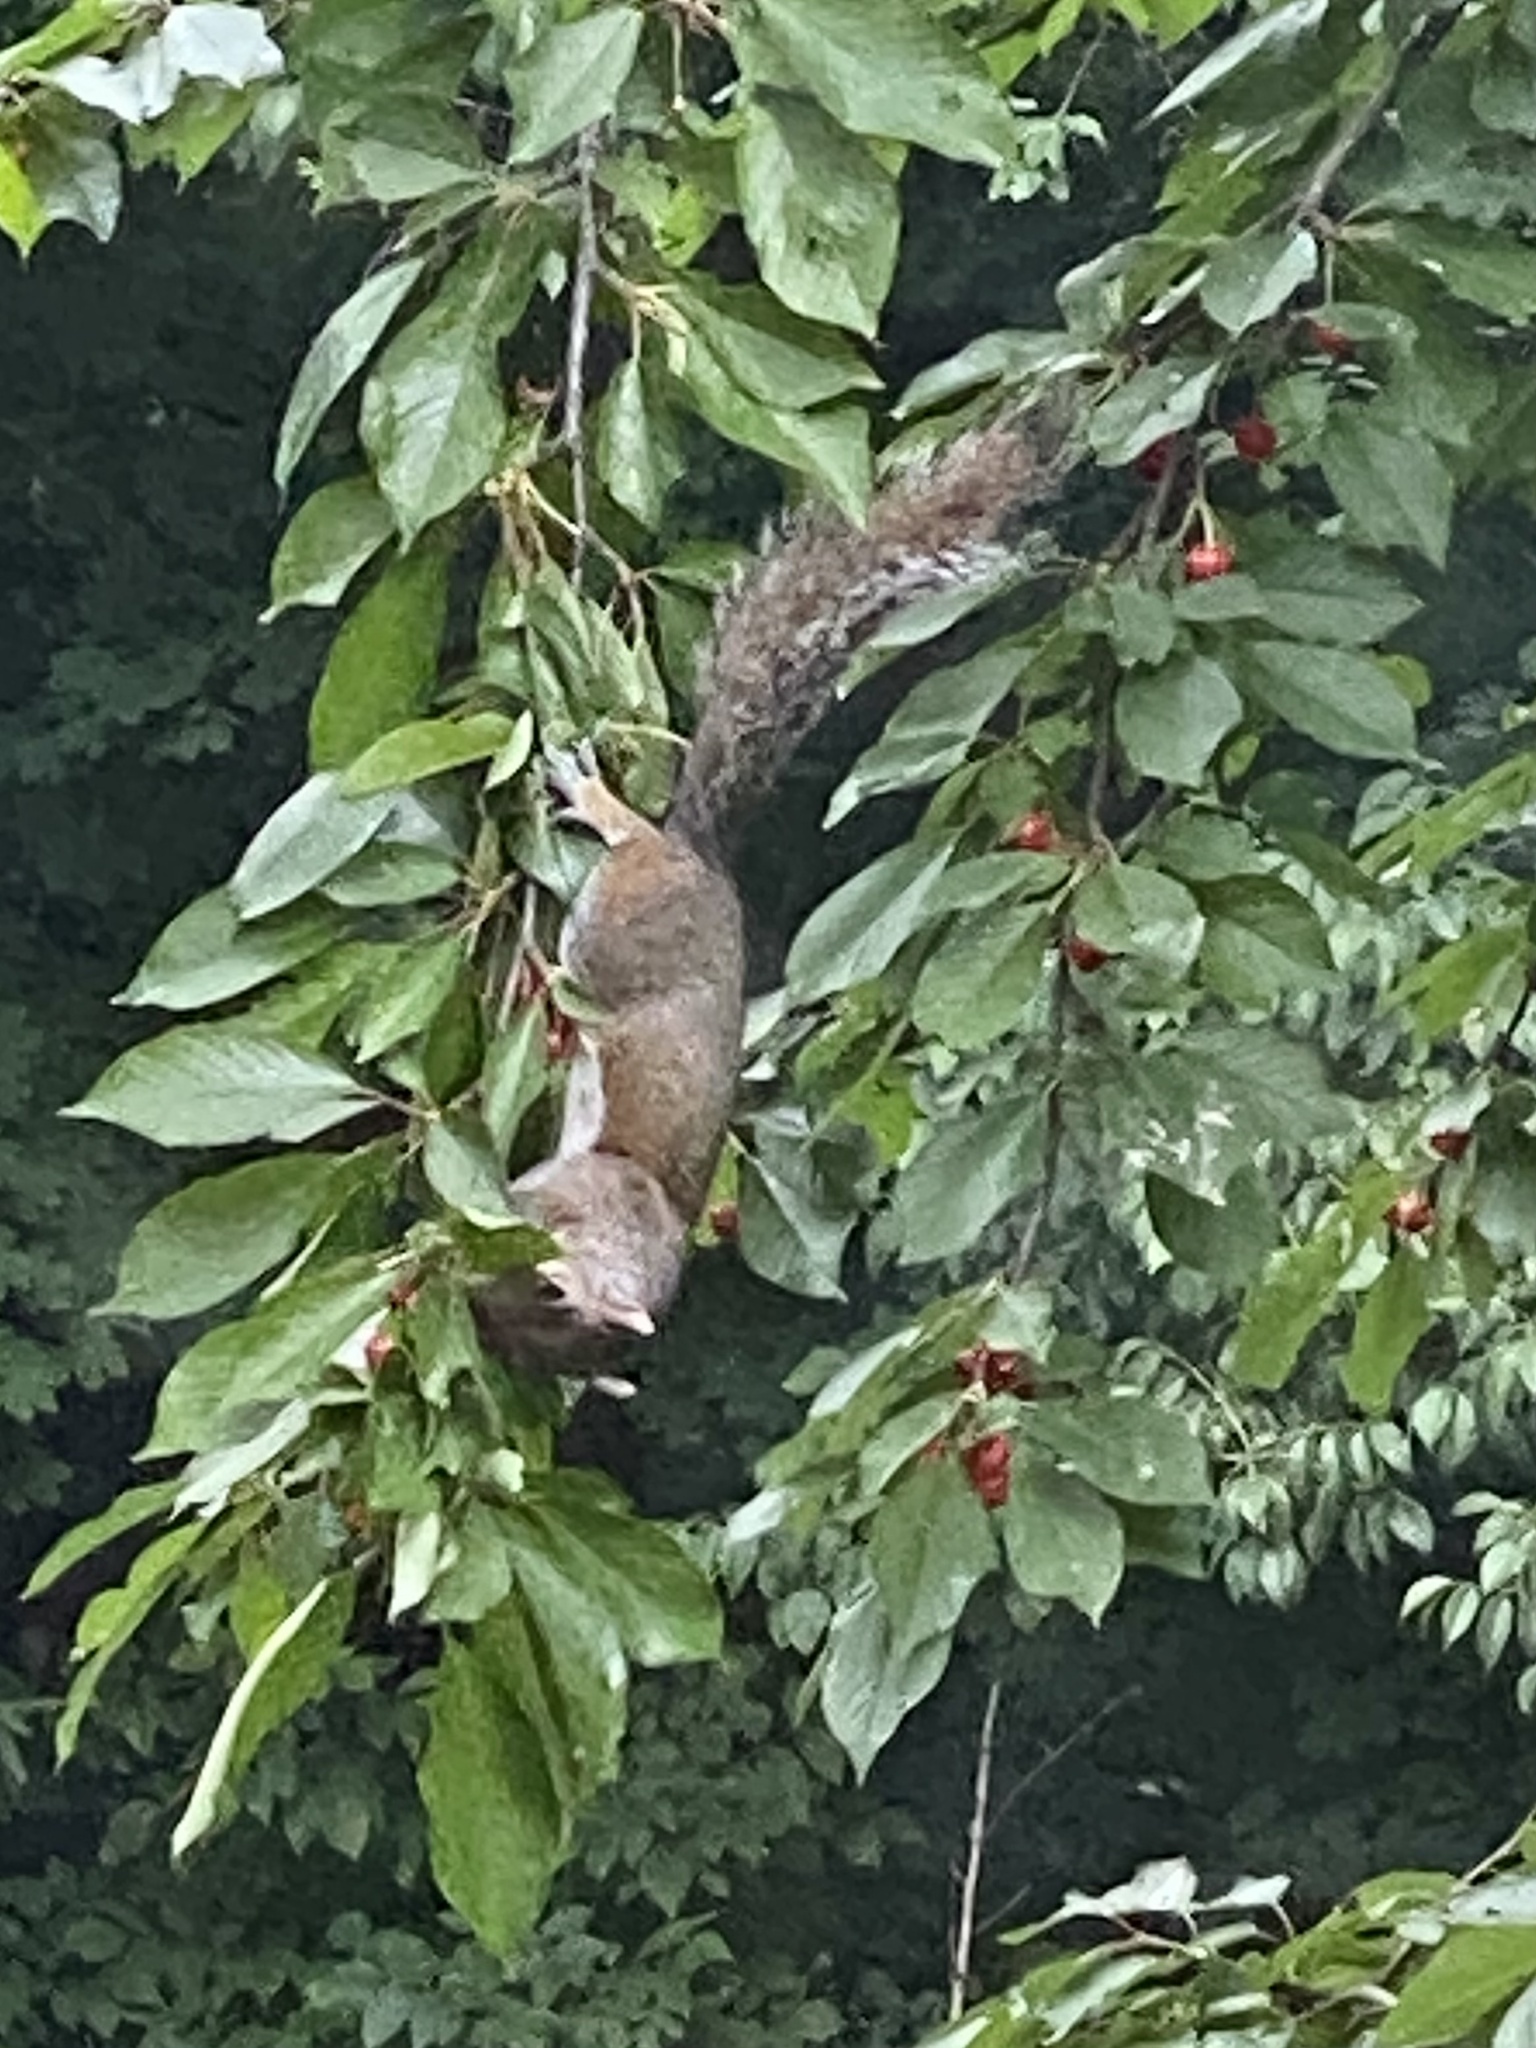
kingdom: Animalia
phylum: Chordata
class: Mammalia
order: Rodentia
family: Sciuridae
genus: Sciurus
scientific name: Sciurus carolinensis
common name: Eastern gray squirrel
